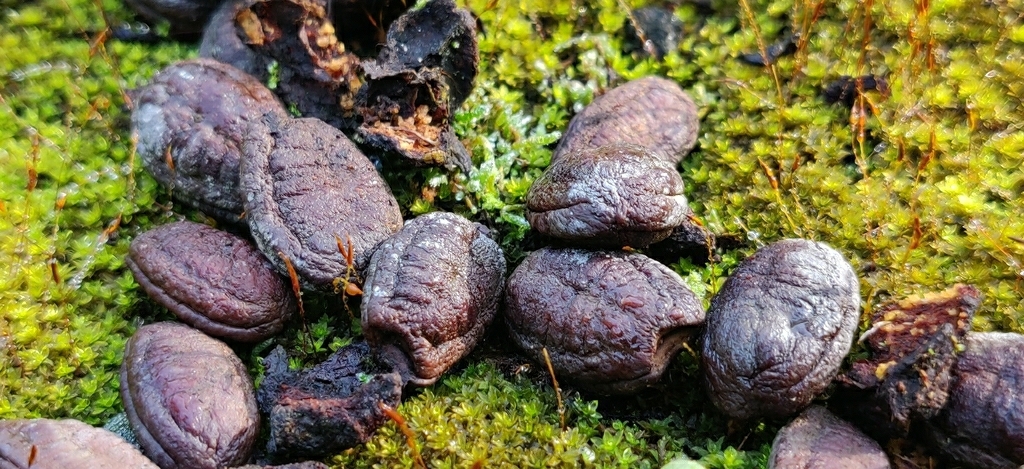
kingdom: Animalia
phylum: Chordata
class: Mammalia
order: Carnivora
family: Viverridae
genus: Paradoxurus
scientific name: Paradoxurus jerdoni
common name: Jerdon's palm civet
